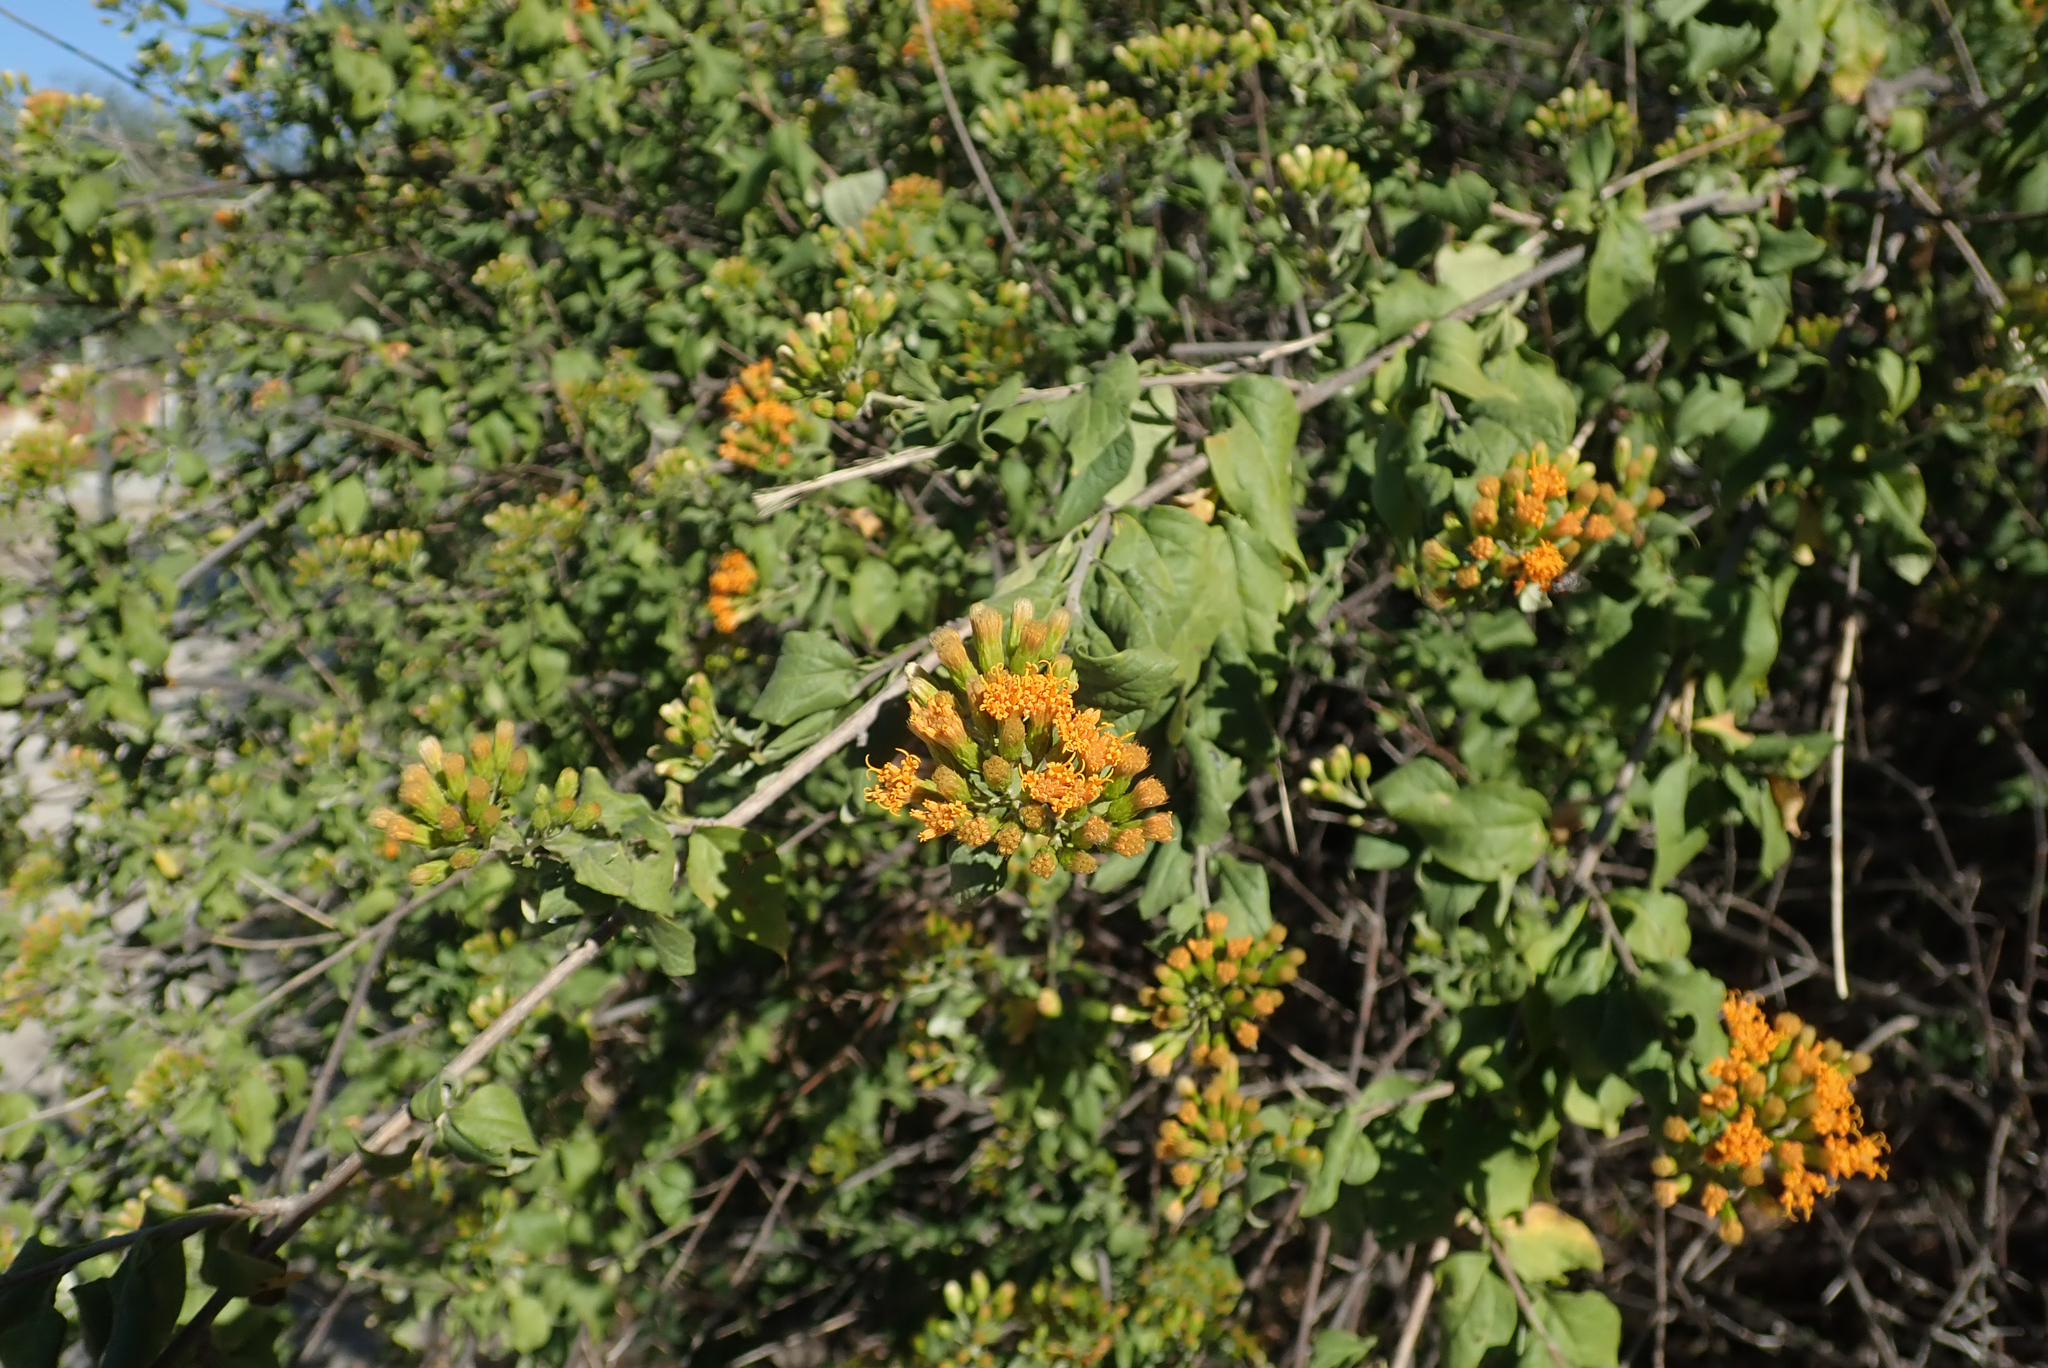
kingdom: Plantae
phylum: Tracheophyta
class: Magnoliopsida
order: Asterales
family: Asteraceae
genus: Distephanus
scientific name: Distephanus divaricatus
